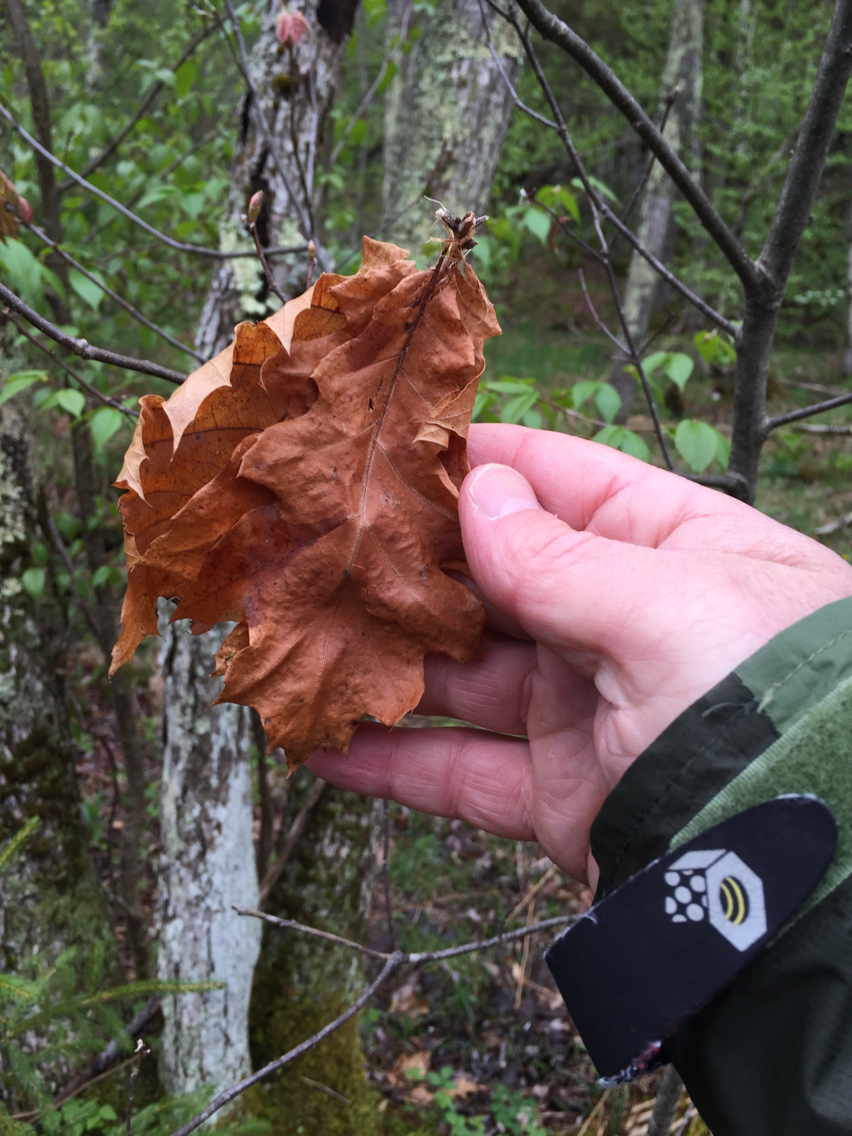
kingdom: Plantae
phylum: Tracheophyta
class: Magnoliopsida
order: Fagales
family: Fagaceae
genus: Quercus
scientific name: Quercus rubra
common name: Red oak
